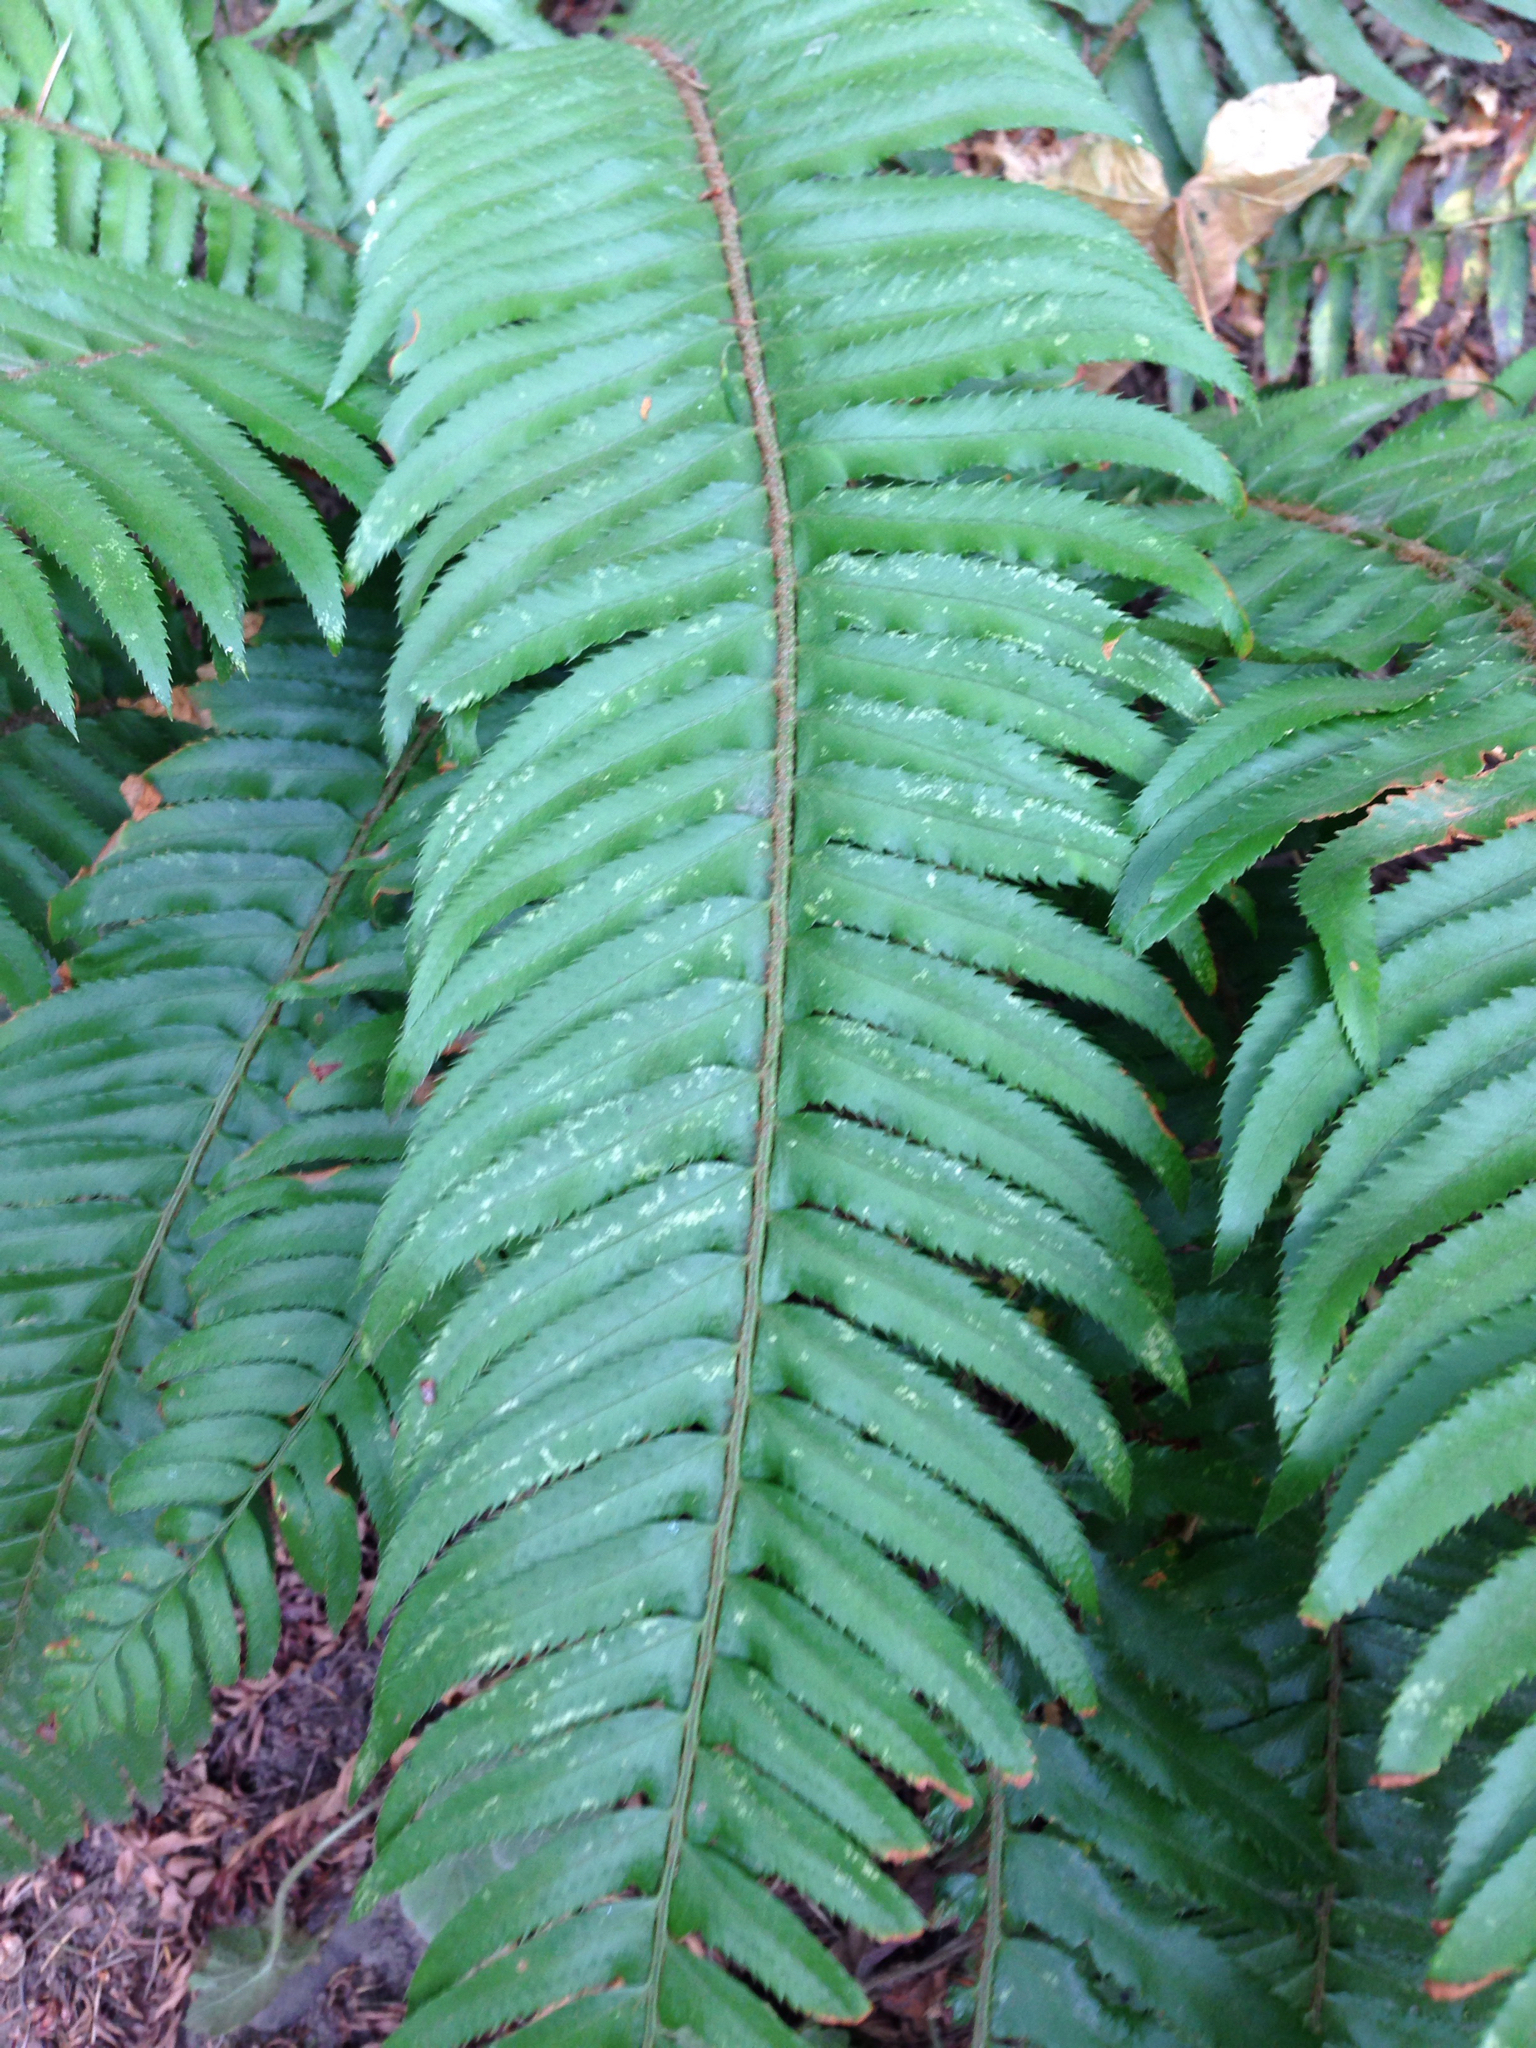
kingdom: Plantae
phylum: Tracheophyta
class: Polypodiopsida
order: Polypodiales
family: Dryopteridaceae
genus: Polystichum
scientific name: Polystichum munitum
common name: Western sword-fern
